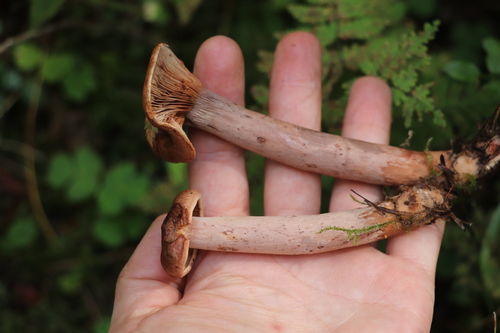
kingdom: Fungi
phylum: Basidiomycota
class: Agaricomycetes
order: Russulales
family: Russulaceae
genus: Lactarius
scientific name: Lactarius rufus
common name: Rufous milk-cap
